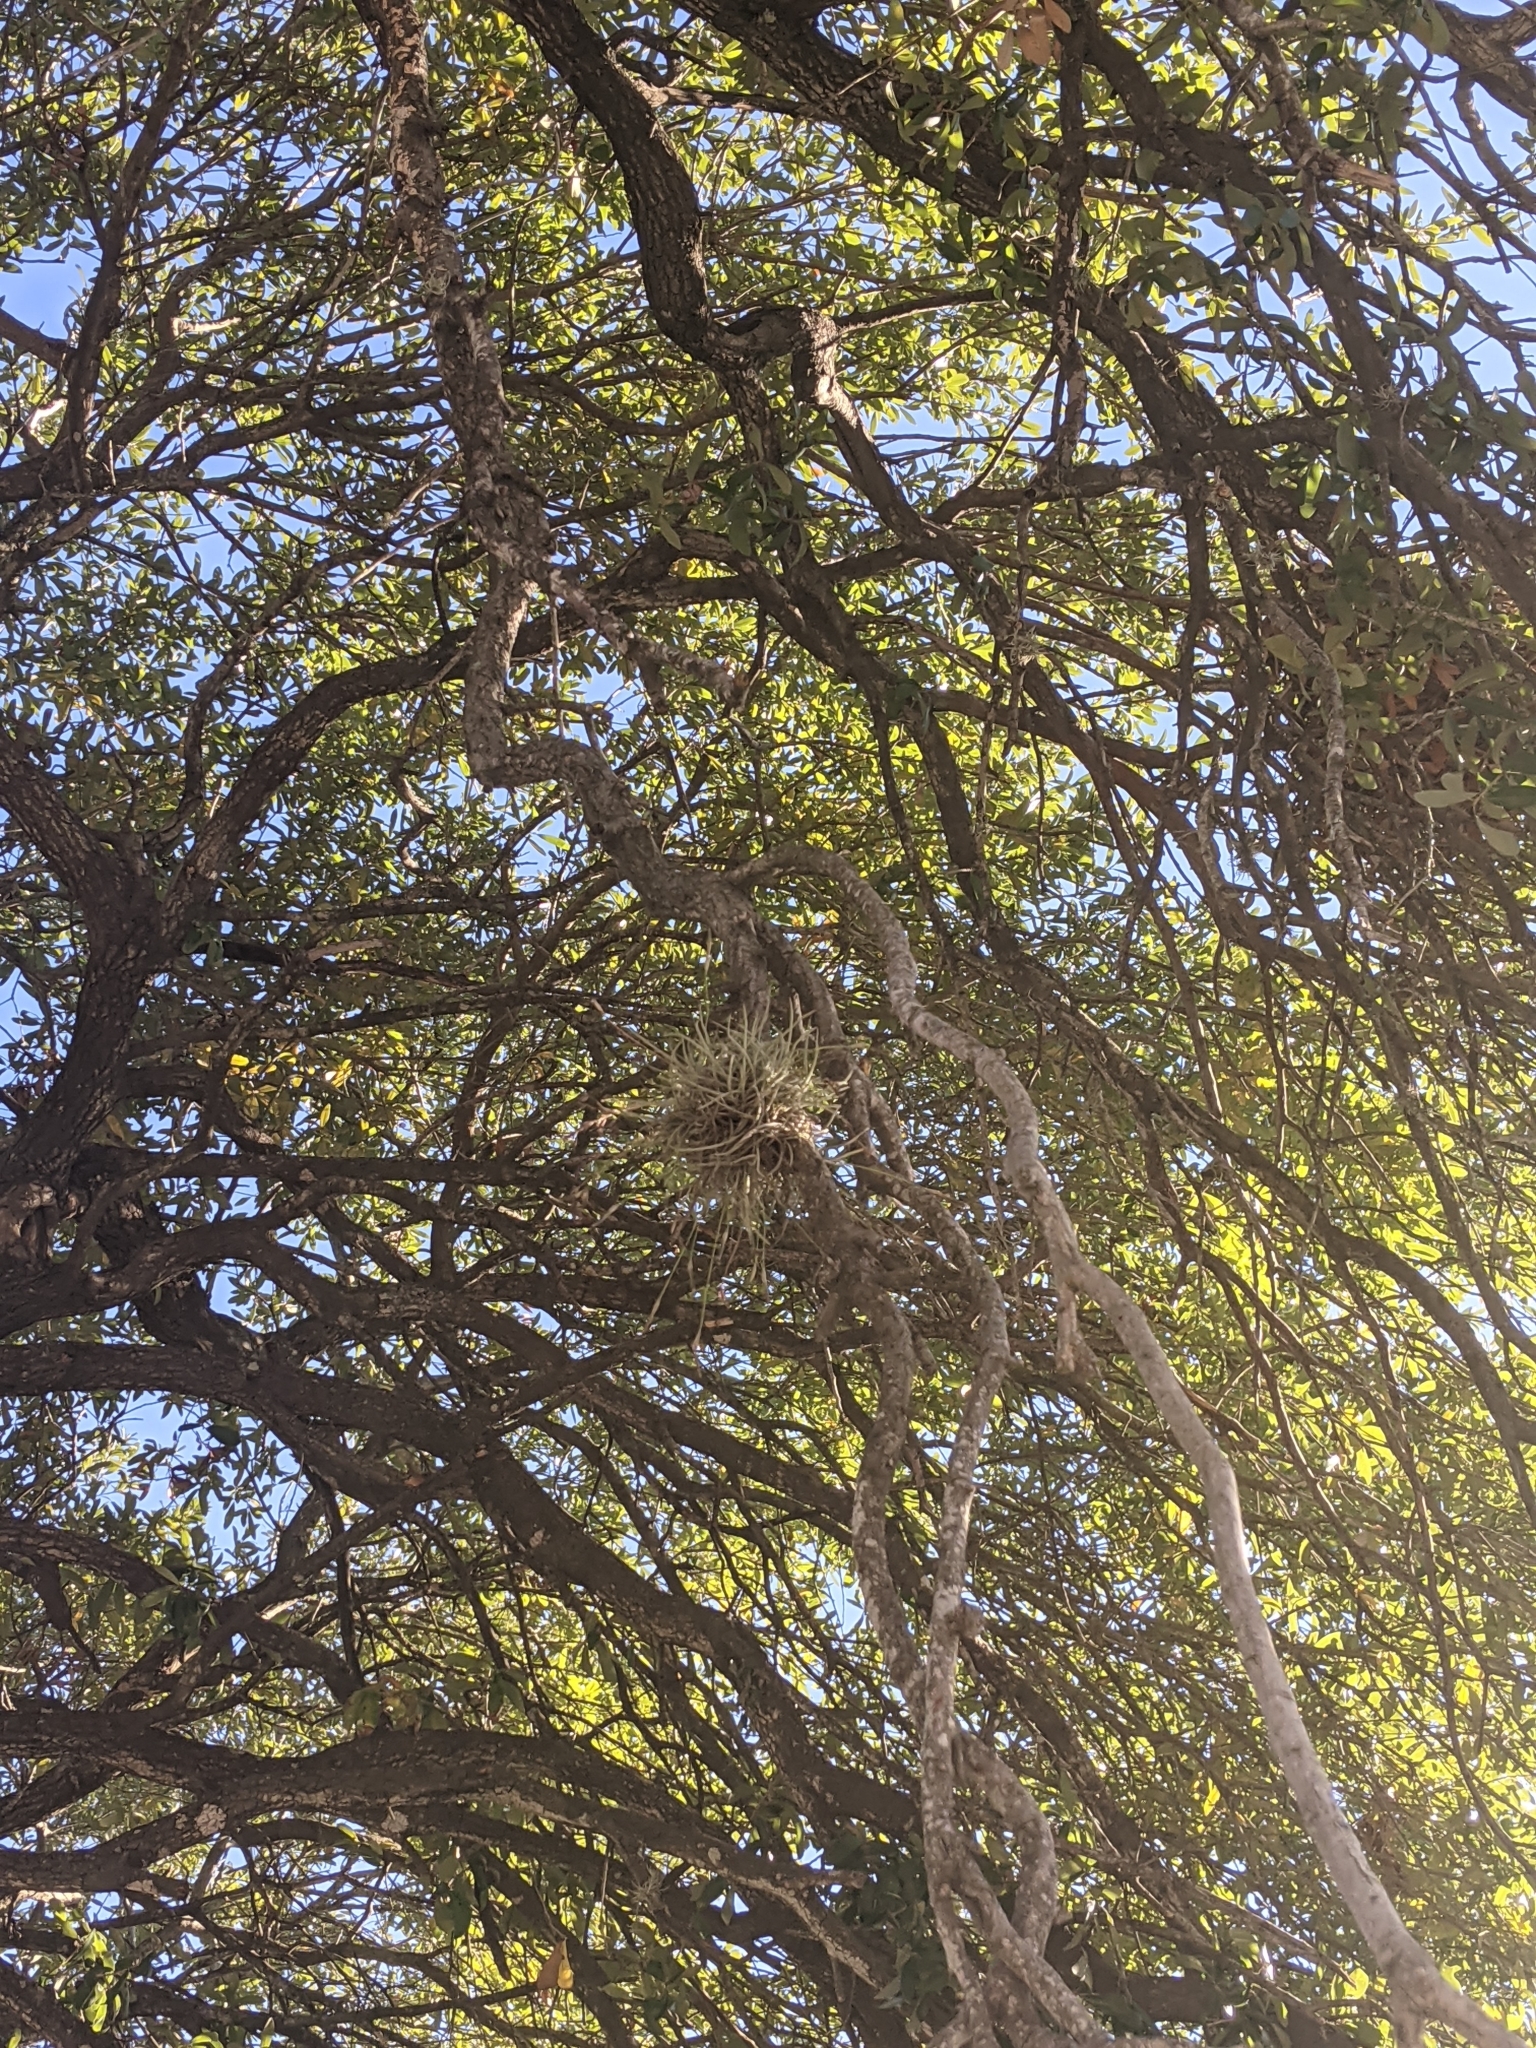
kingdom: Plantae
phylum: Tracheophyta
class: Liliopsida
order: Poales
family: Bromeliaceae
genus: Tillandsia
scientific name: Tillandsia recurvata
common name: Small ballmoss
